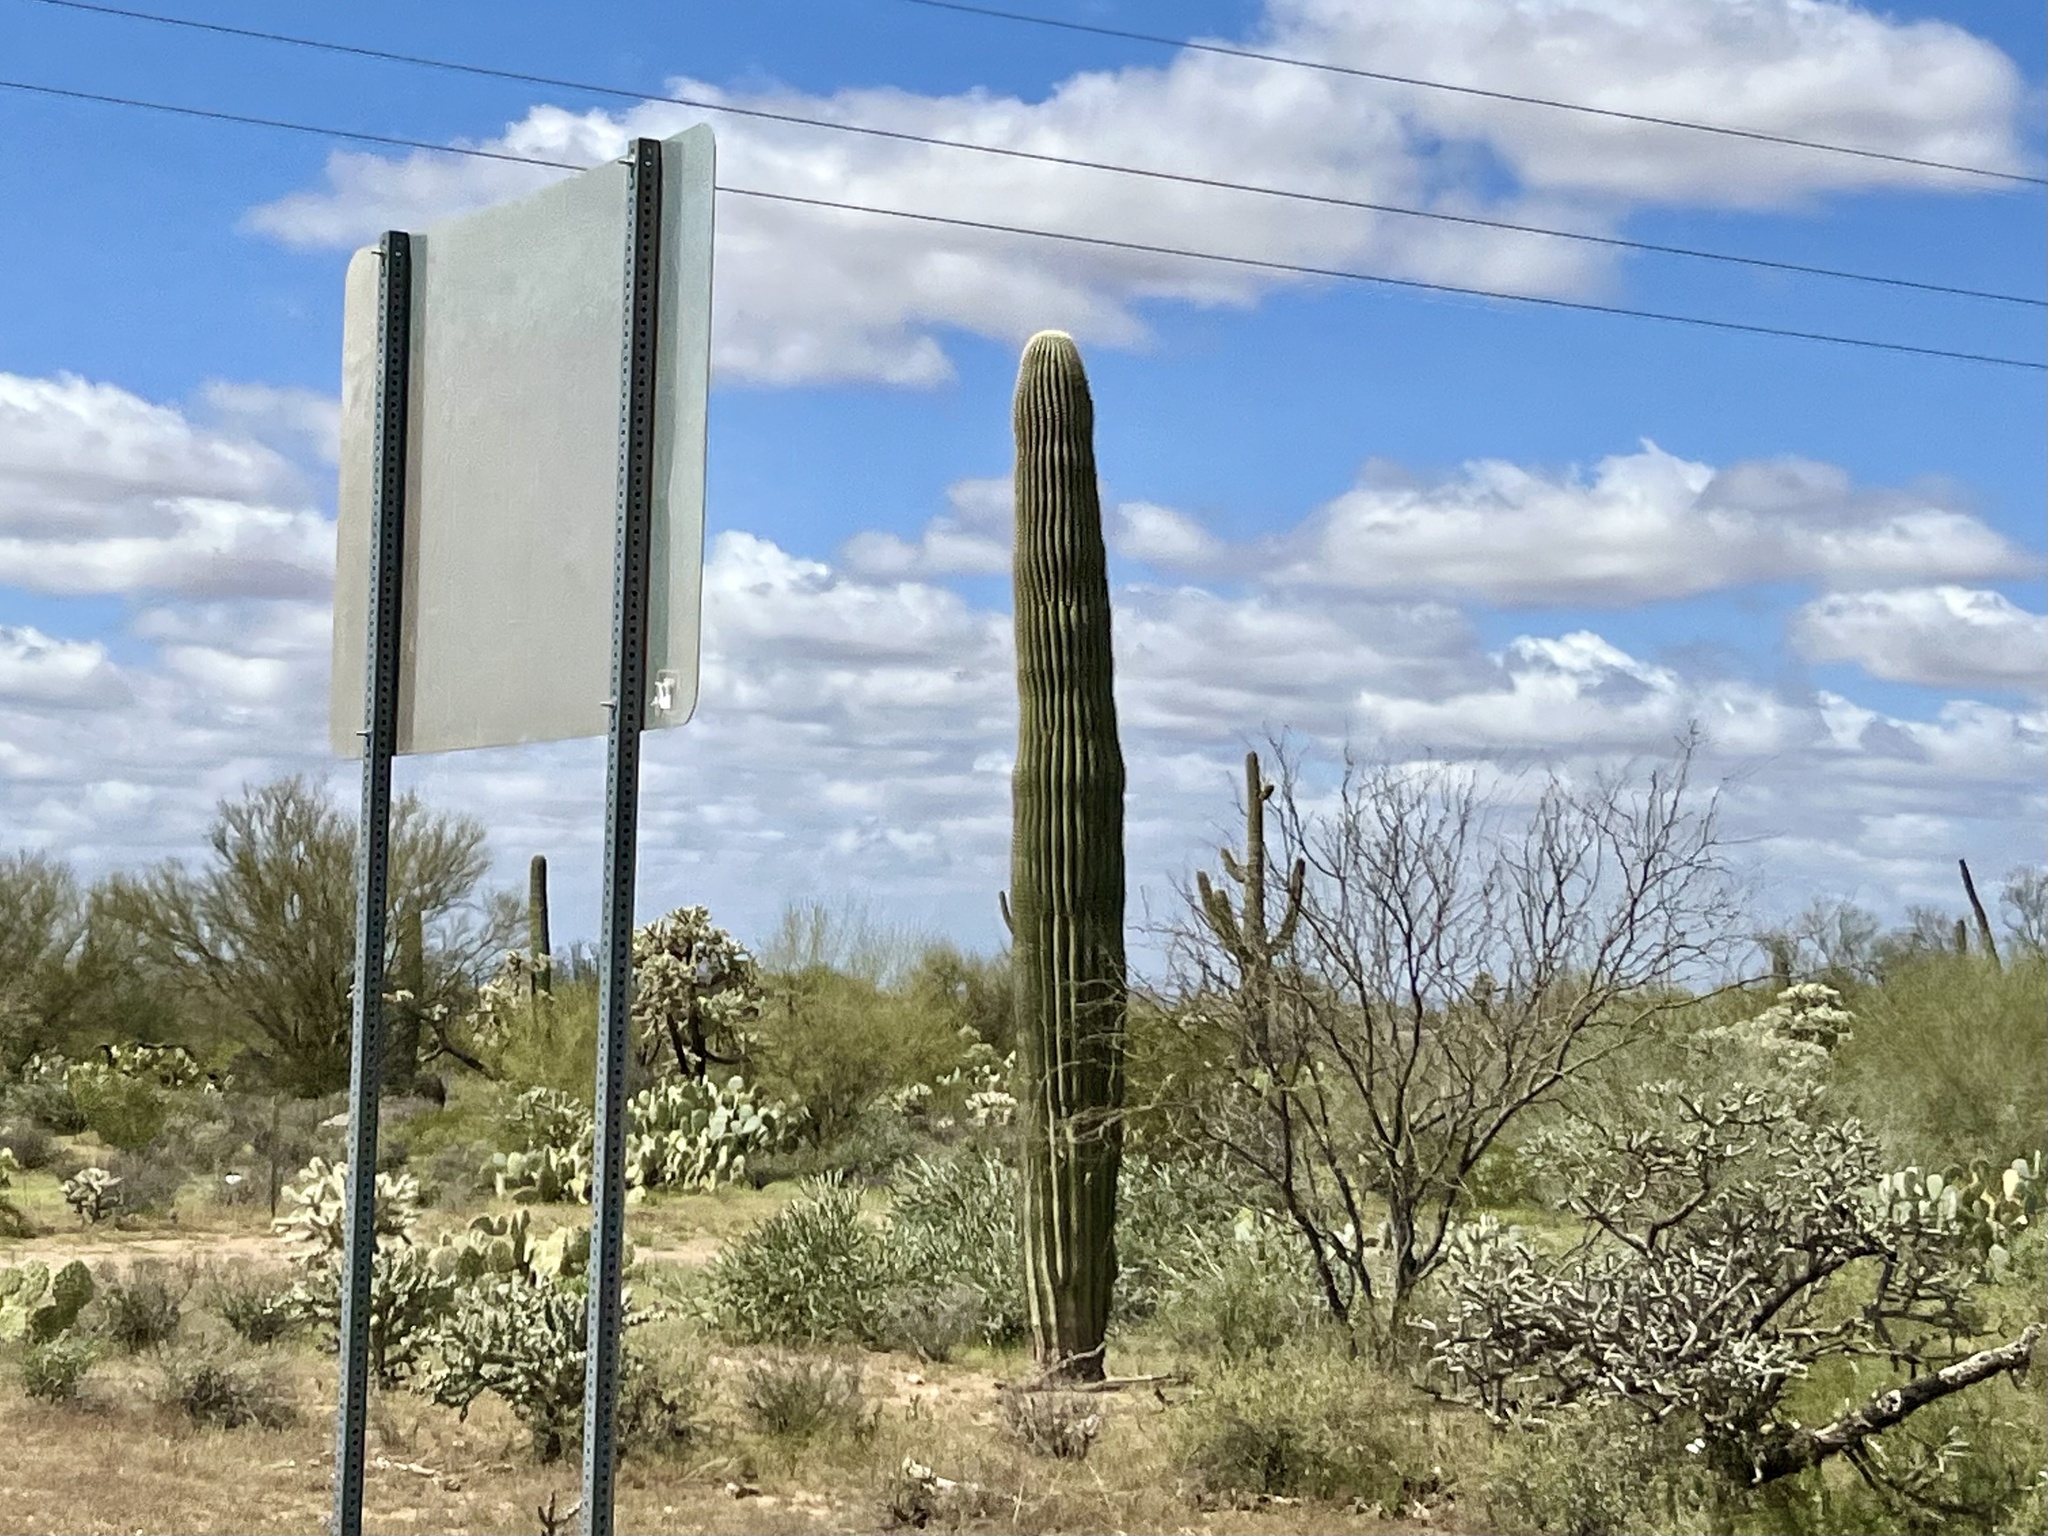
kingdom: Plantae
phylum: Tracheophyta
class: Magnoliopsida
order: Caryophyllales
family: Cactaceae
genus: Carnegiea
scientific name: Carnegiea gigantea
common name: Saguaro
